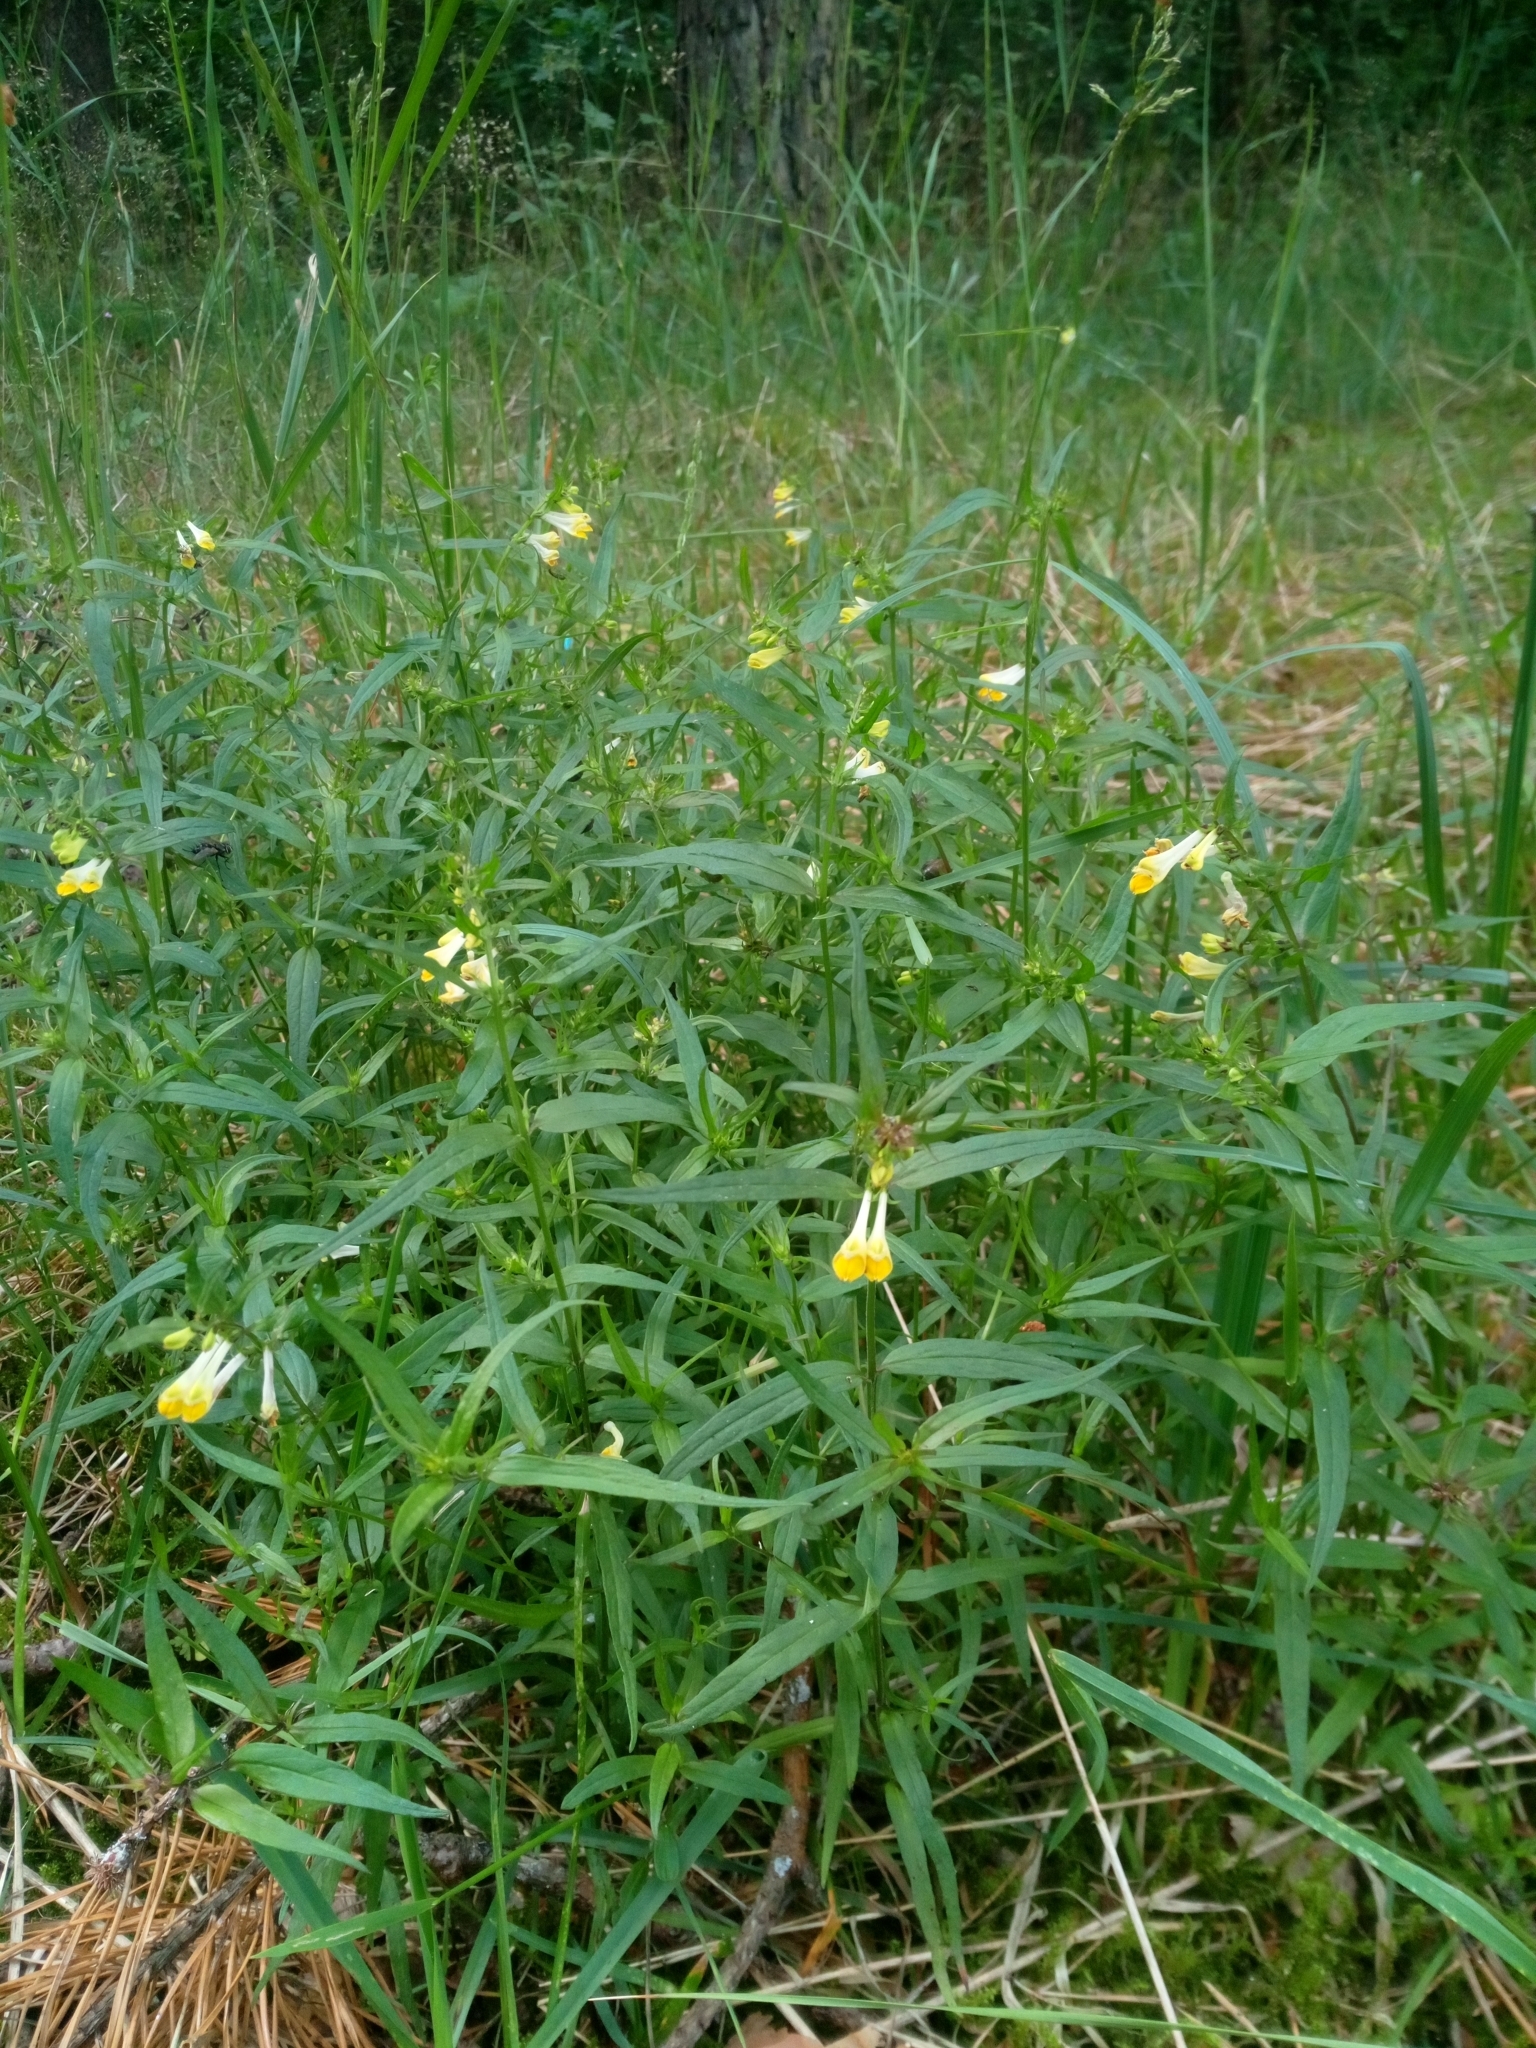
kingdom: Plantae
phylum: Tracheophyta
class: Magnoliopsida
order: Lamiales
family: Orobanchaceae
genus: Melampyrum
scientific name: Melampyrum pratense
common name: Common cow-wheat
